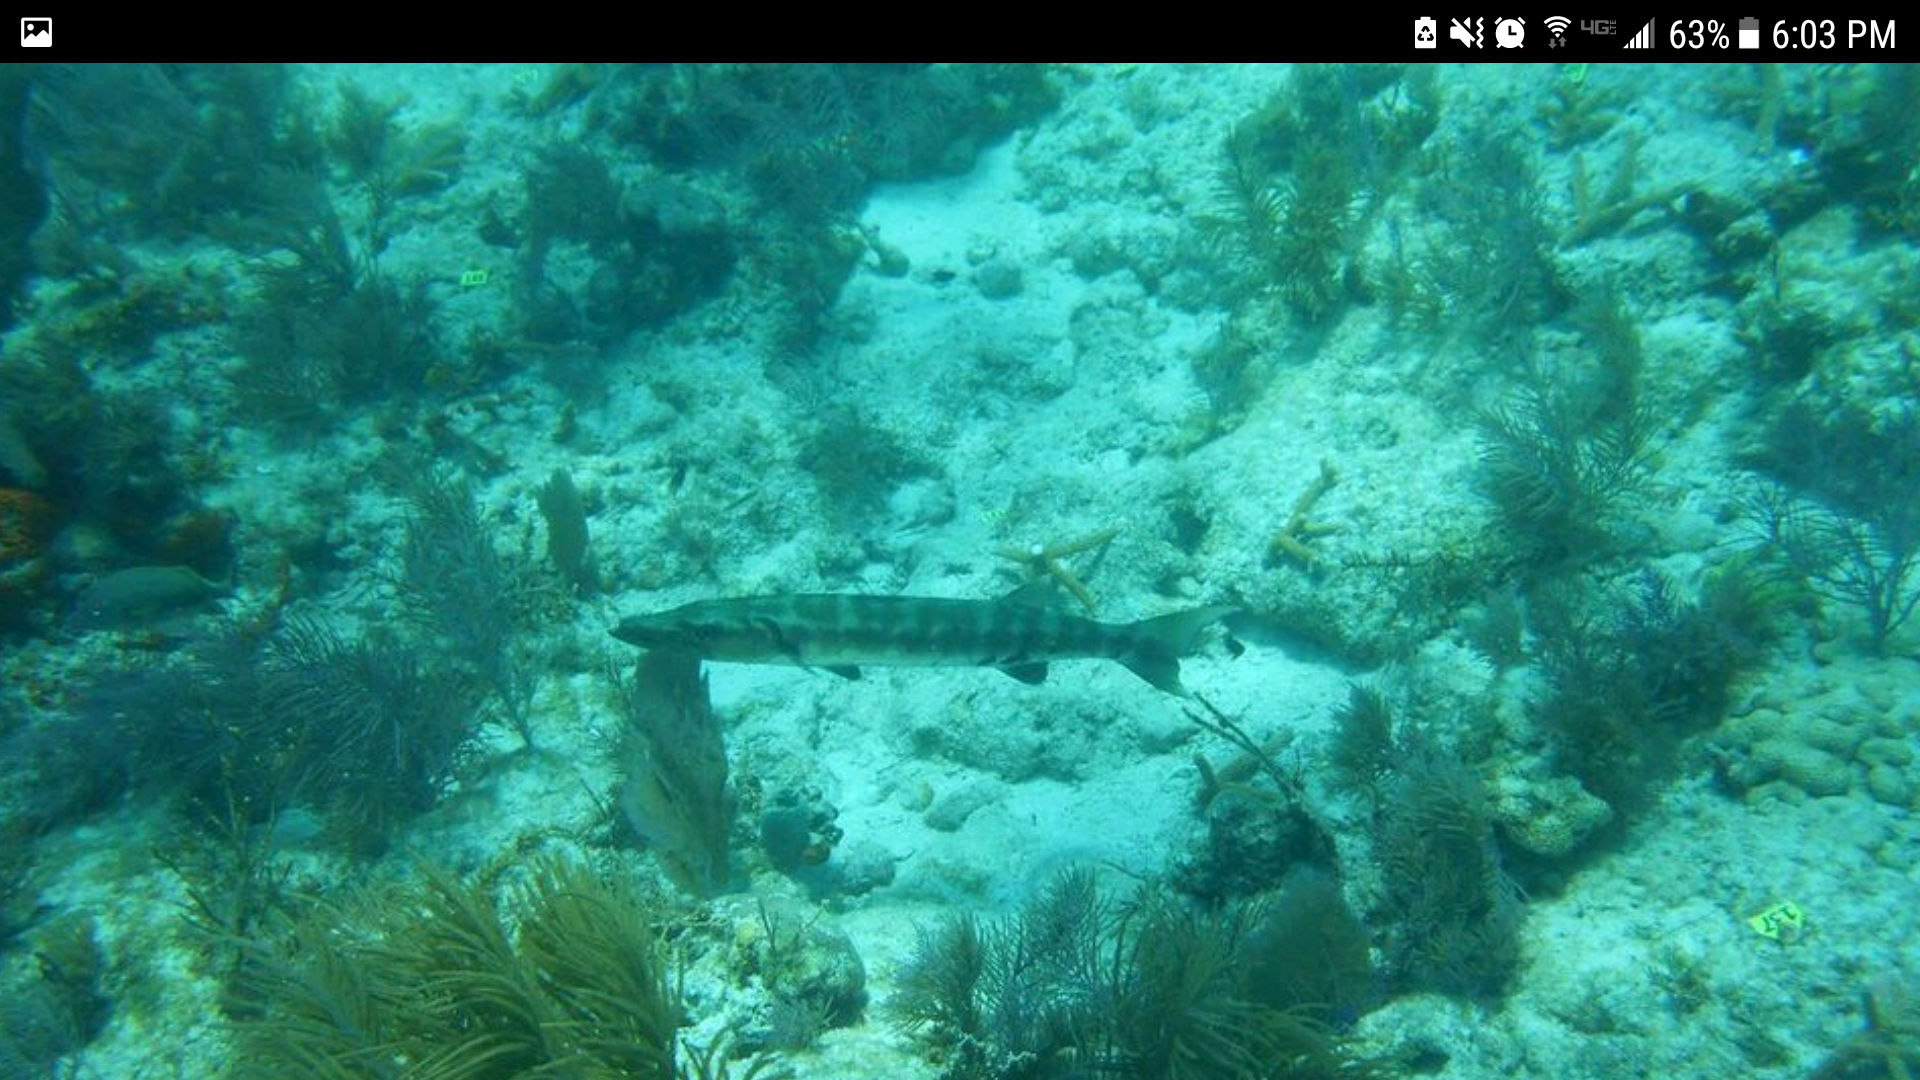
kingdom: Animalia
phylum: Chordata
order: Perciformes
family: Sphyraenidae
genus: Sphyraena
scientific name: Sphyraena barracuda
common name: Great barracuda
